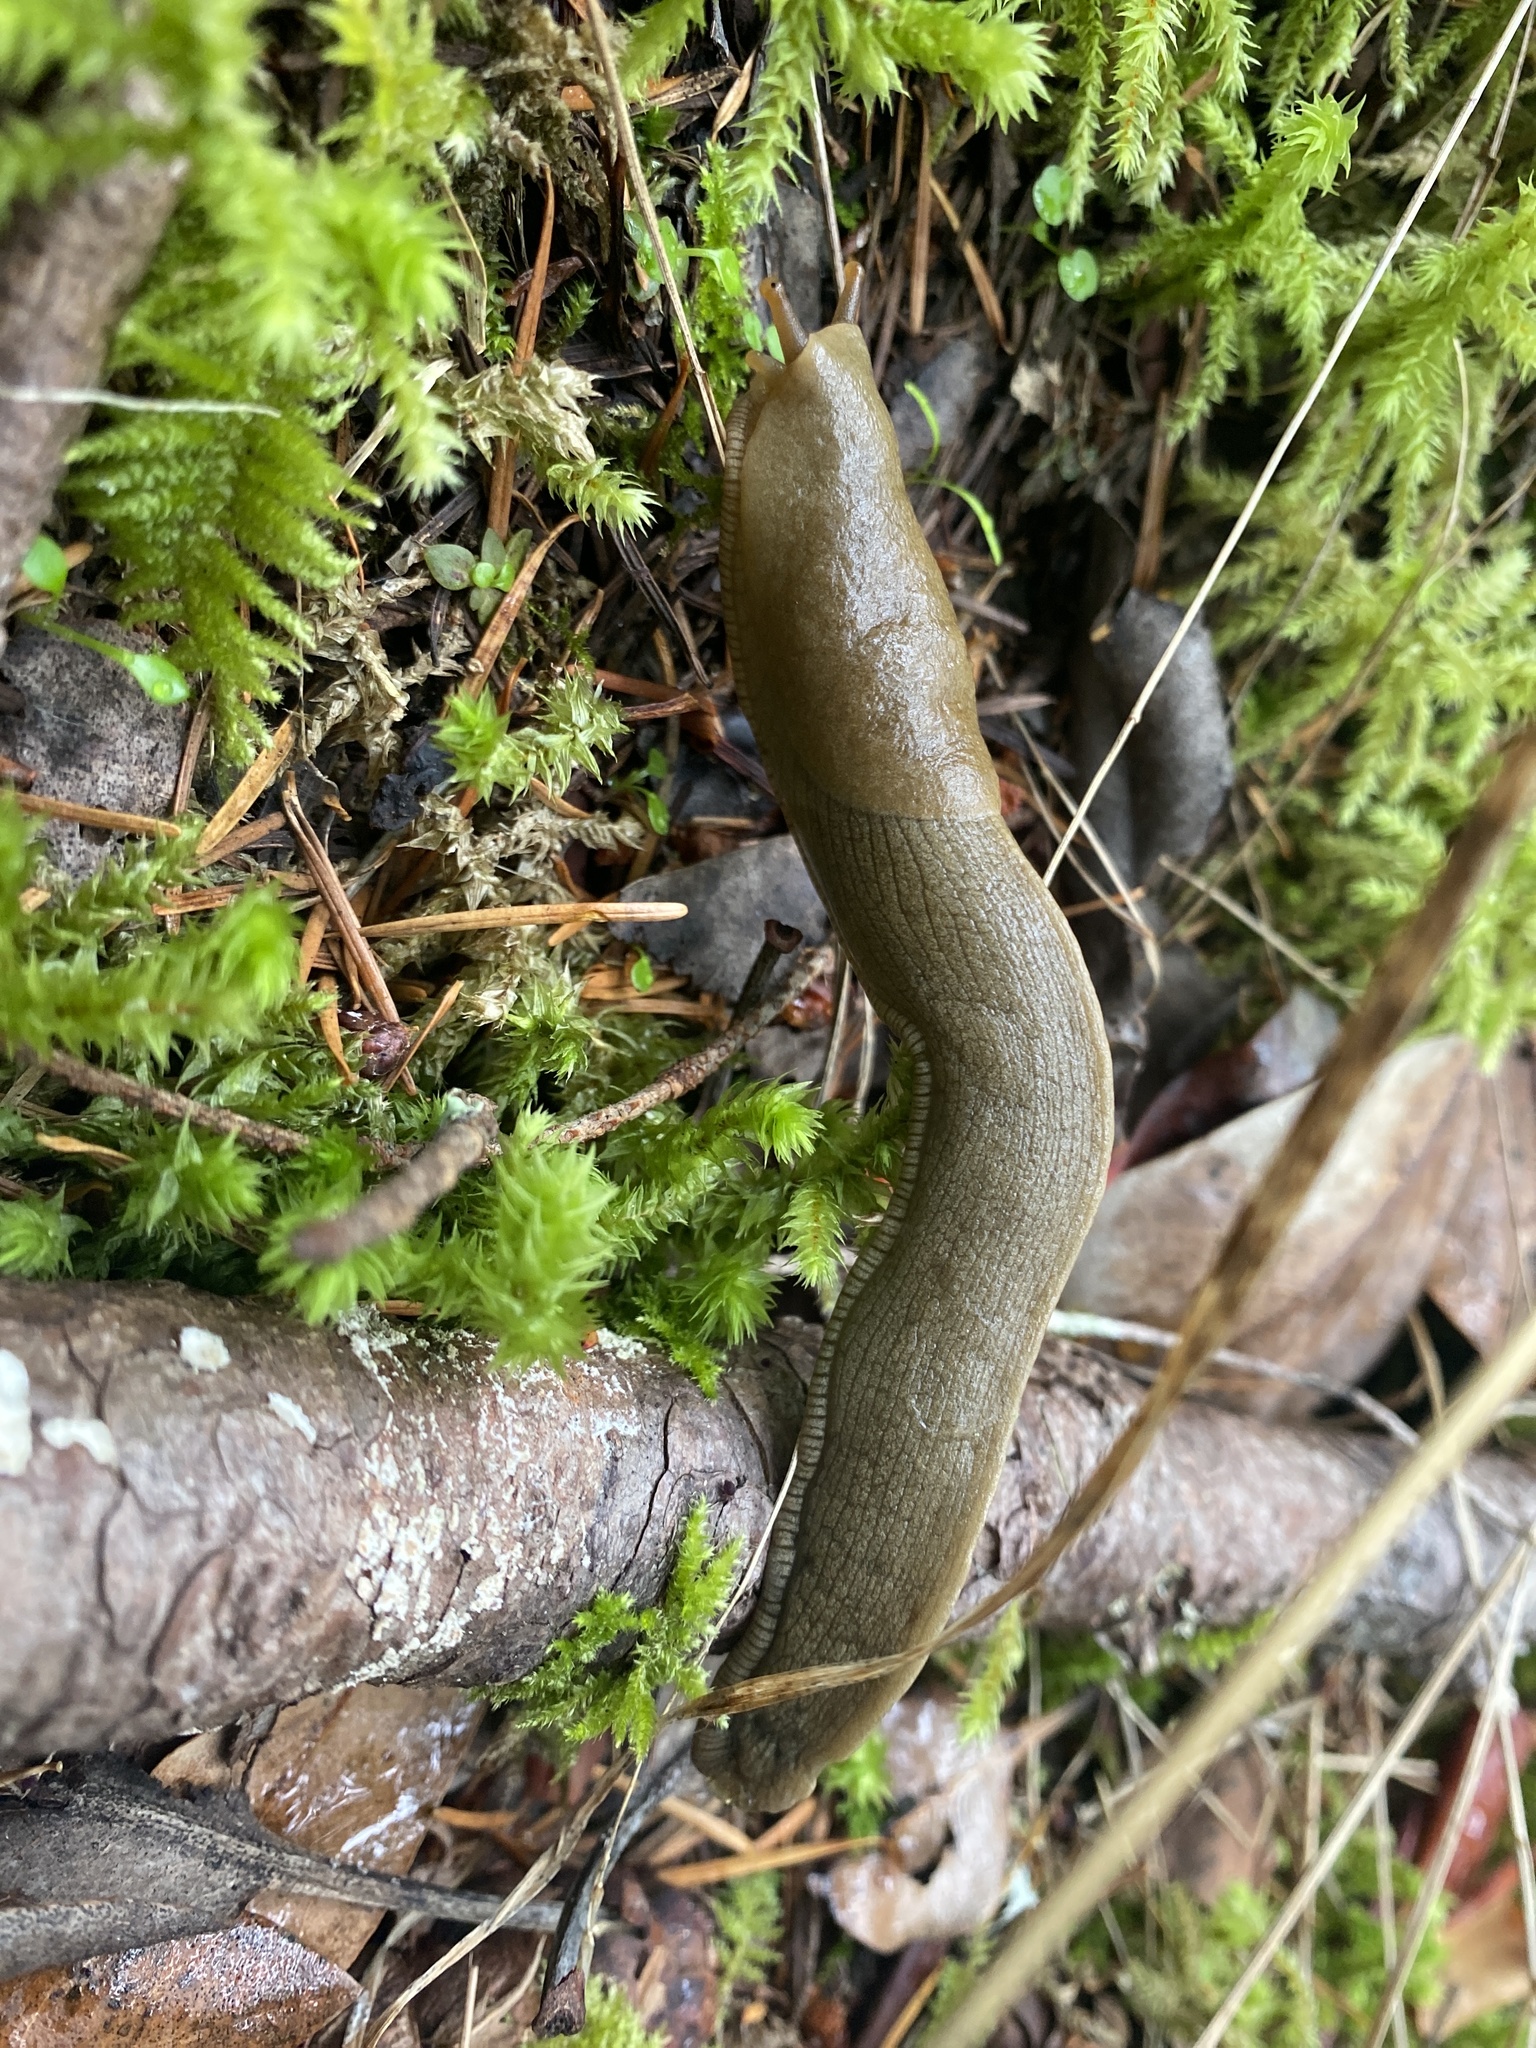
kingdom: Animalia
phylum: Mollusca
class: Gastropoda
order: Stylommatophora
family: Ariolimacidae
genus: Ariolimax
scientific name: Ariolimax columbianus
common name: Pacific banana slug
